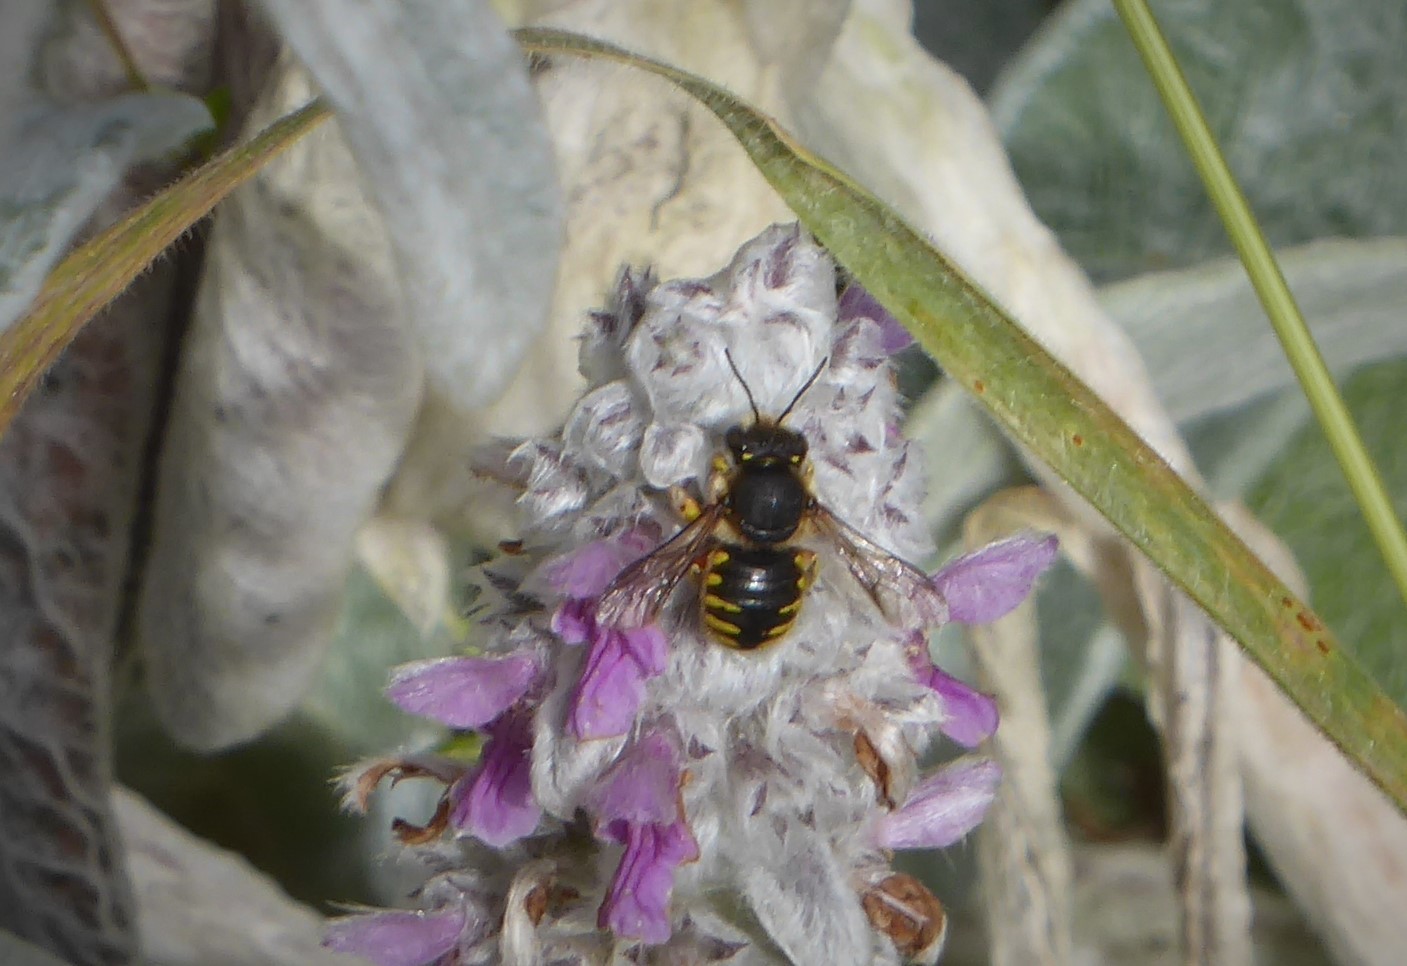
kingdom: Animalia
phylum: Arthropoda
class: Insecta
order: Hymenoptera
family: Megachilidae
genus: Anthidium
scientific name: Anthidium manicatum
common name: Wool carder bee
